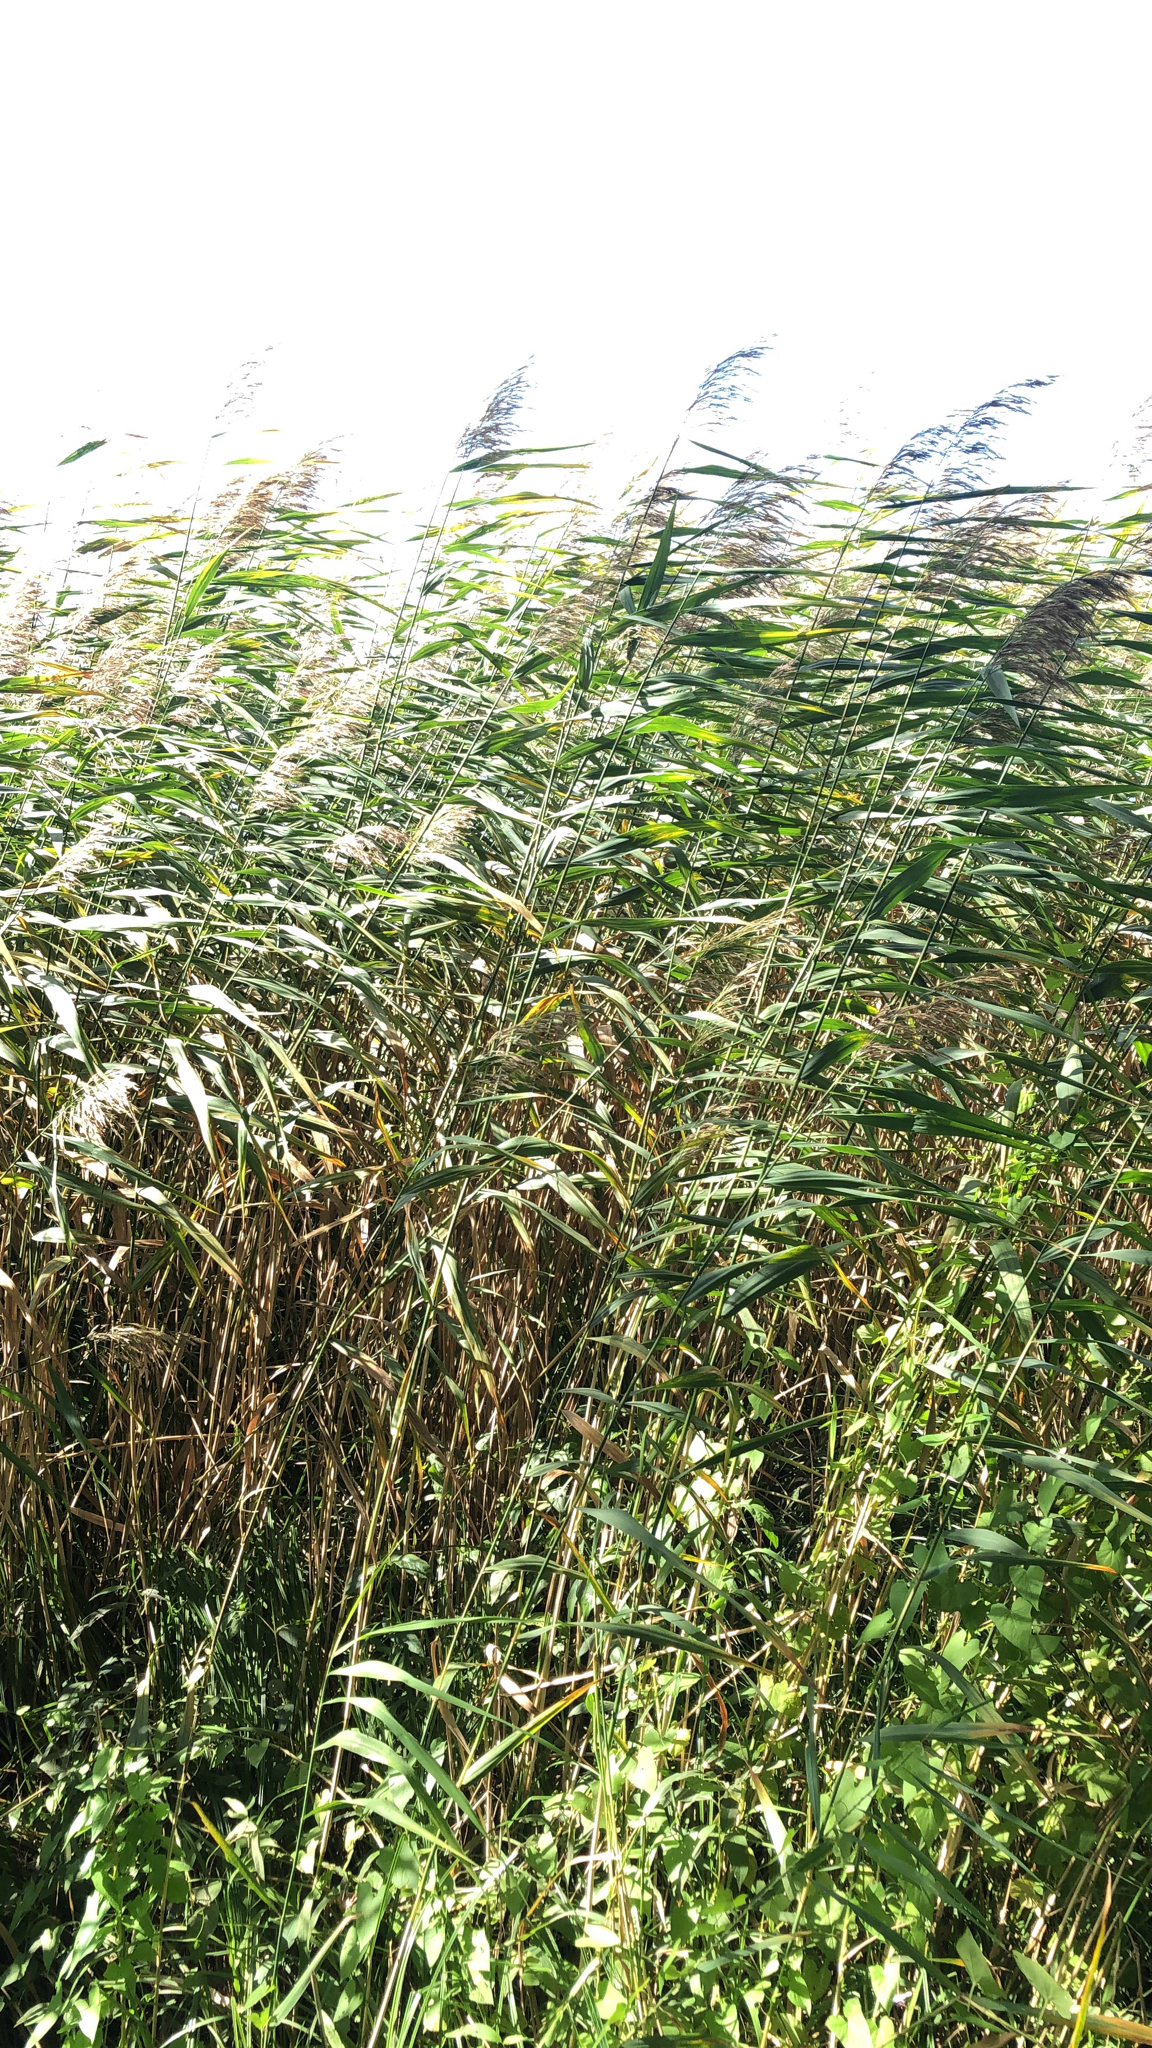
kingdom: Plantae
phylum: Tracheophyta
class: Liliopsida
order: Poales
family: Poaceae
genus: Phragmites
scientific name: Phragmites australis
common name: Common reed
